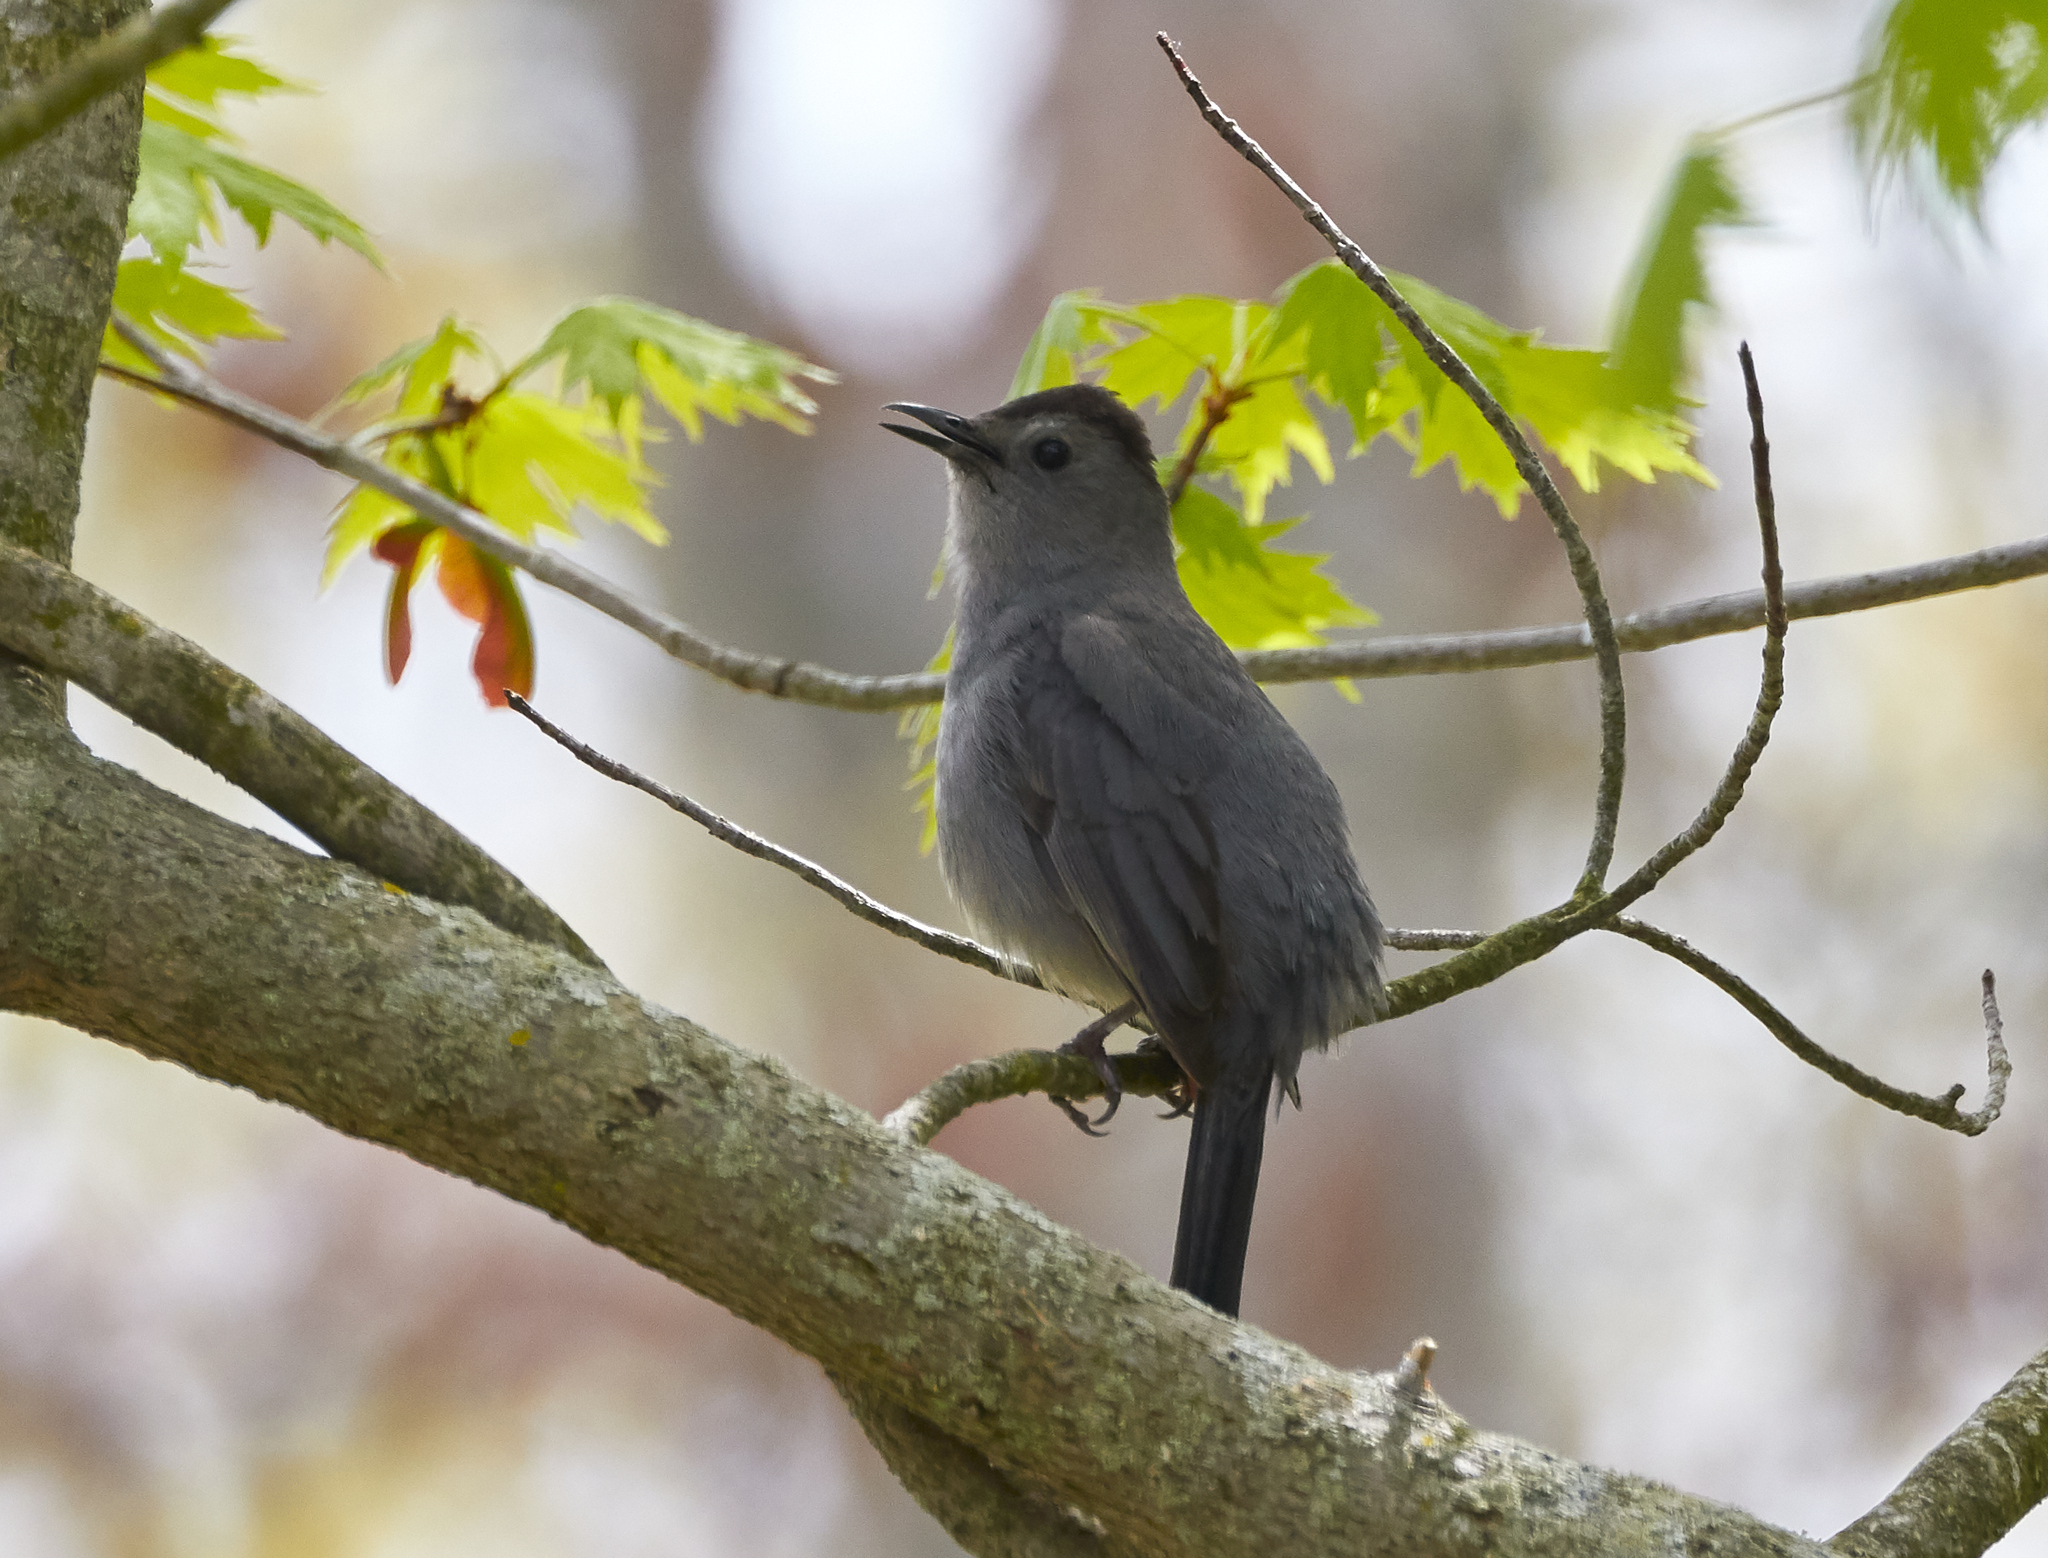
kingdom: Animalia
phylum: Chordata
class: Aves
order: Passeriformes
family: Mimidae
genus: Dumetella
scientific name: Dumetella carolinensis
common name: Gray catbird
